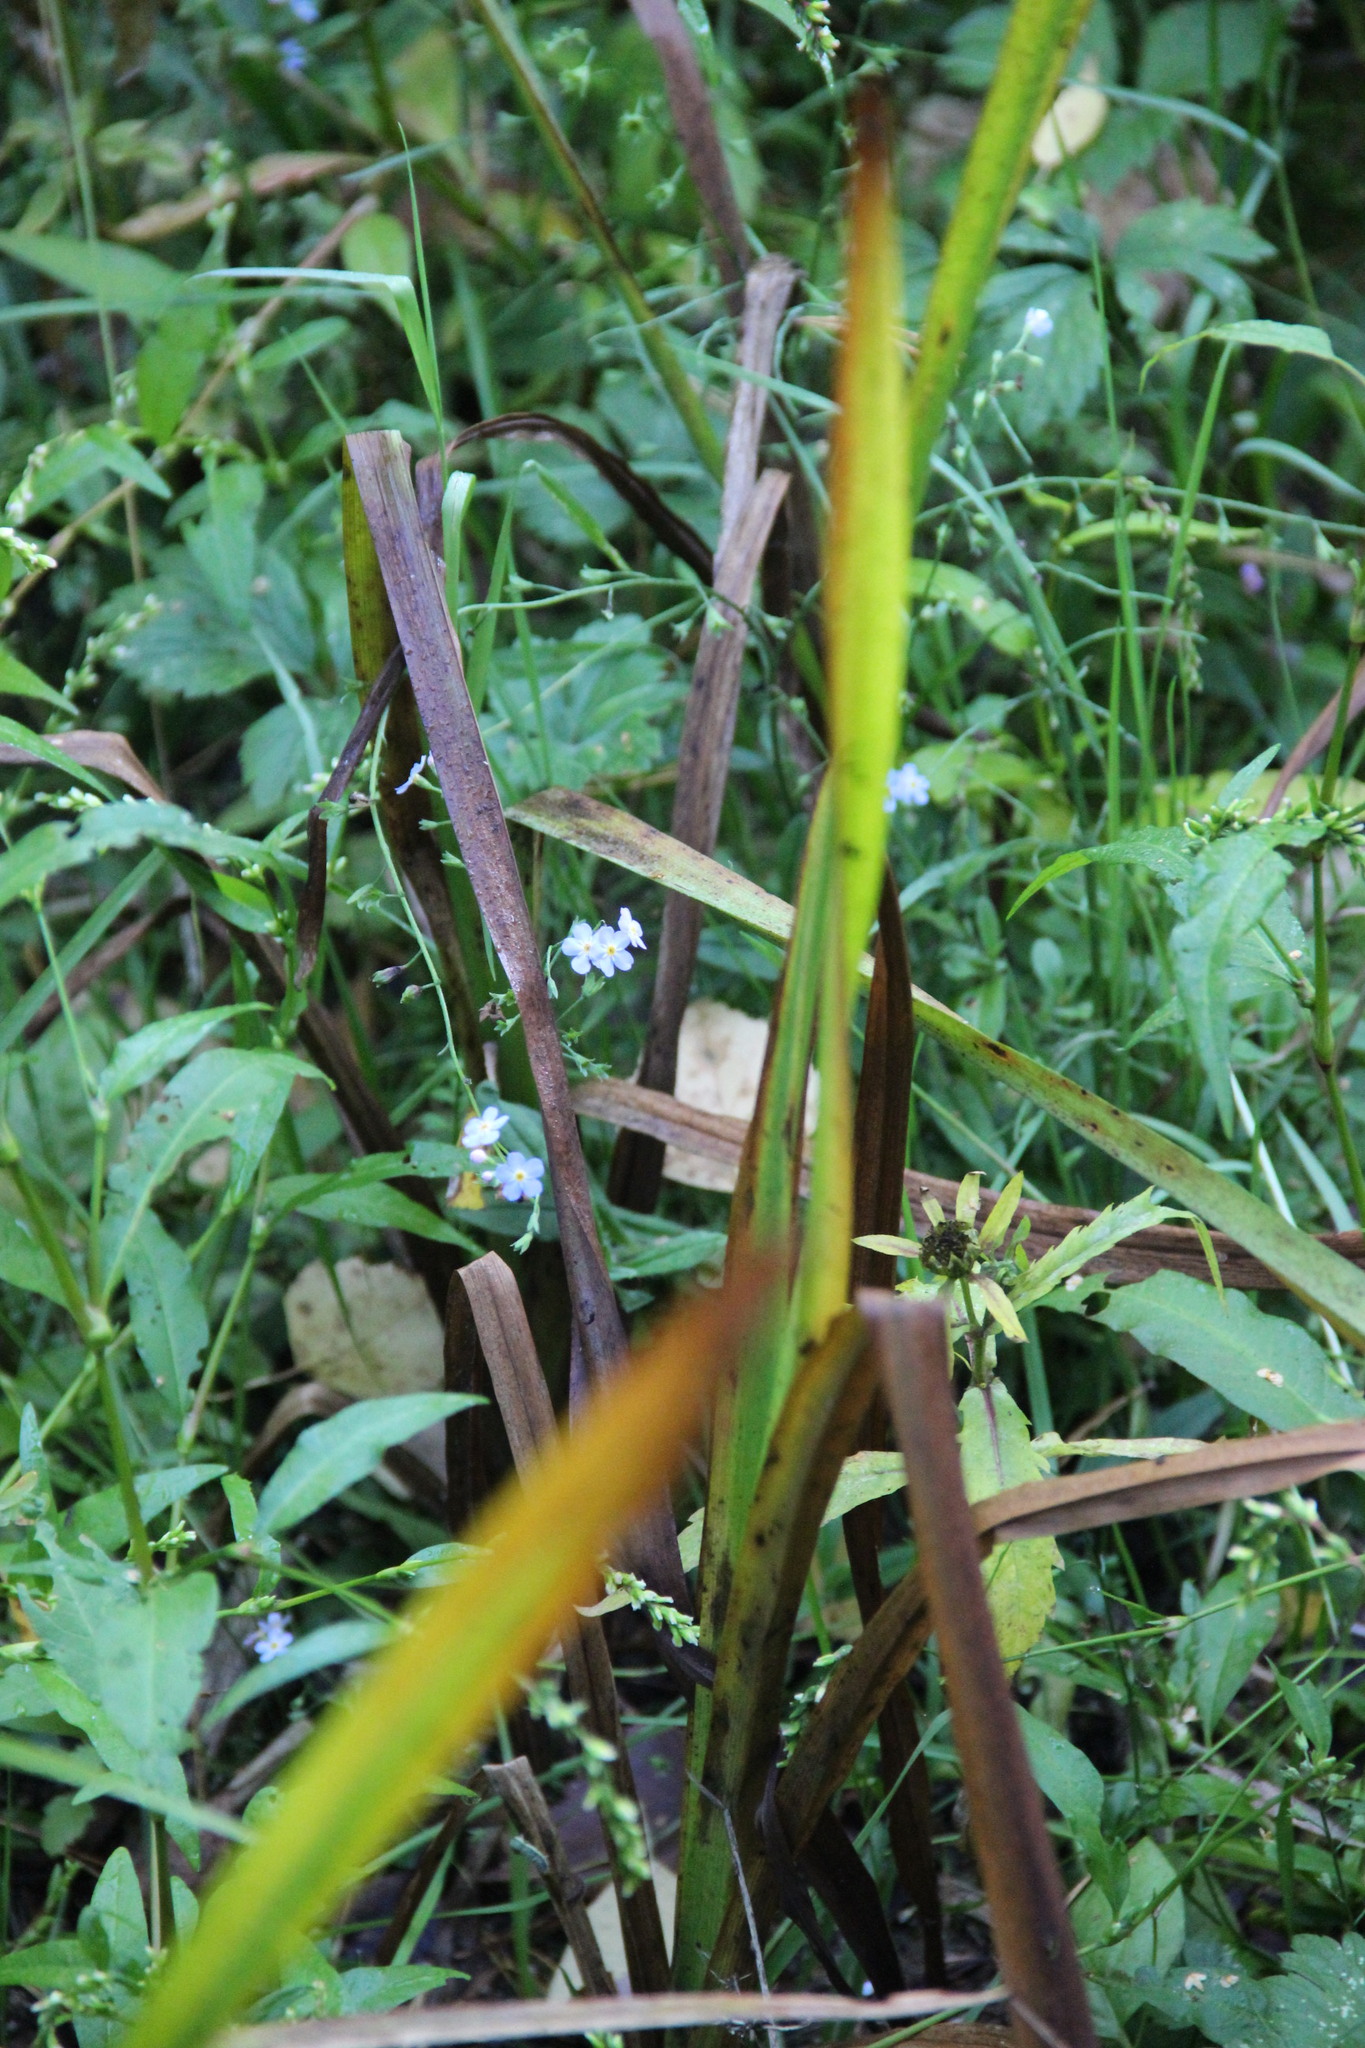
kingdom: Plantae
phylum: Tracheophyta
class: Magnoliopsida
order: Boraginales
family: Boraginaceae
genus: Myosotis
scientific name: Myosotis scorpioides
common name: Water forget-me-not
